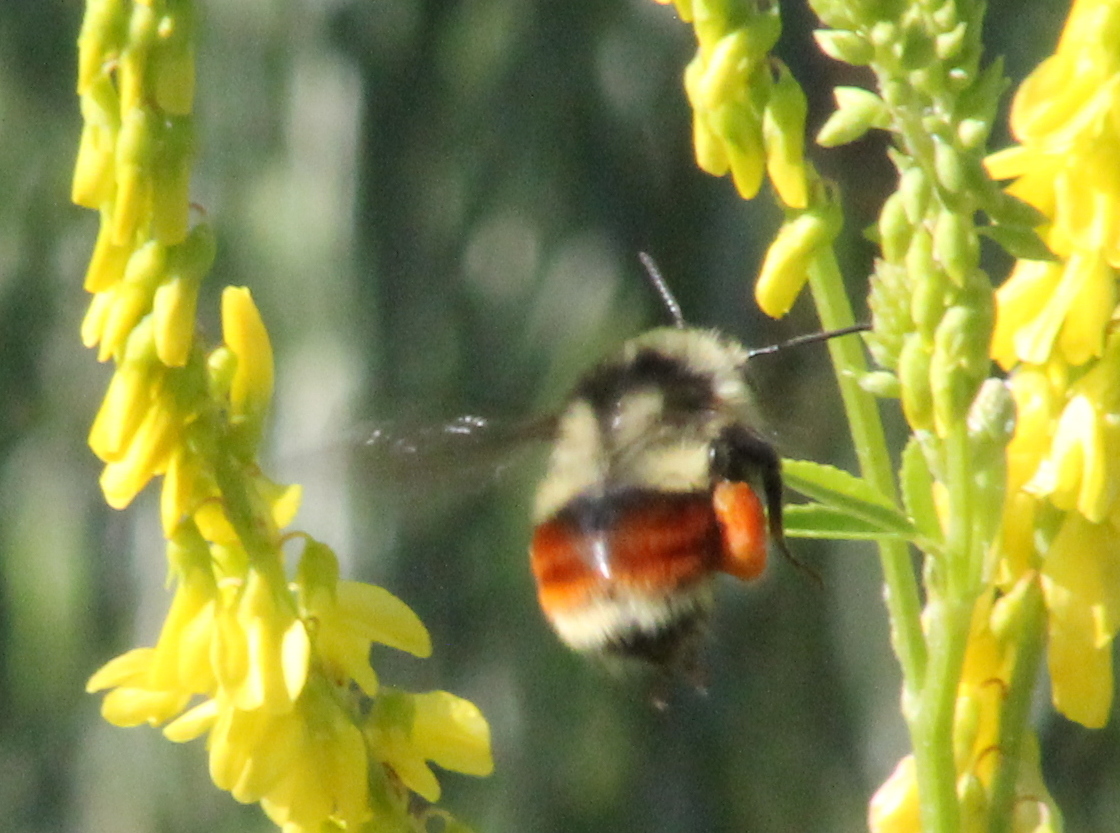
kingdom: Animalia
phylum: Arthropoda
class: Insecta
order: Hymenoptera
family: Apidae
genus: Bombus
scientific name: Bombus bifarius
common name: Two form bumble bee
